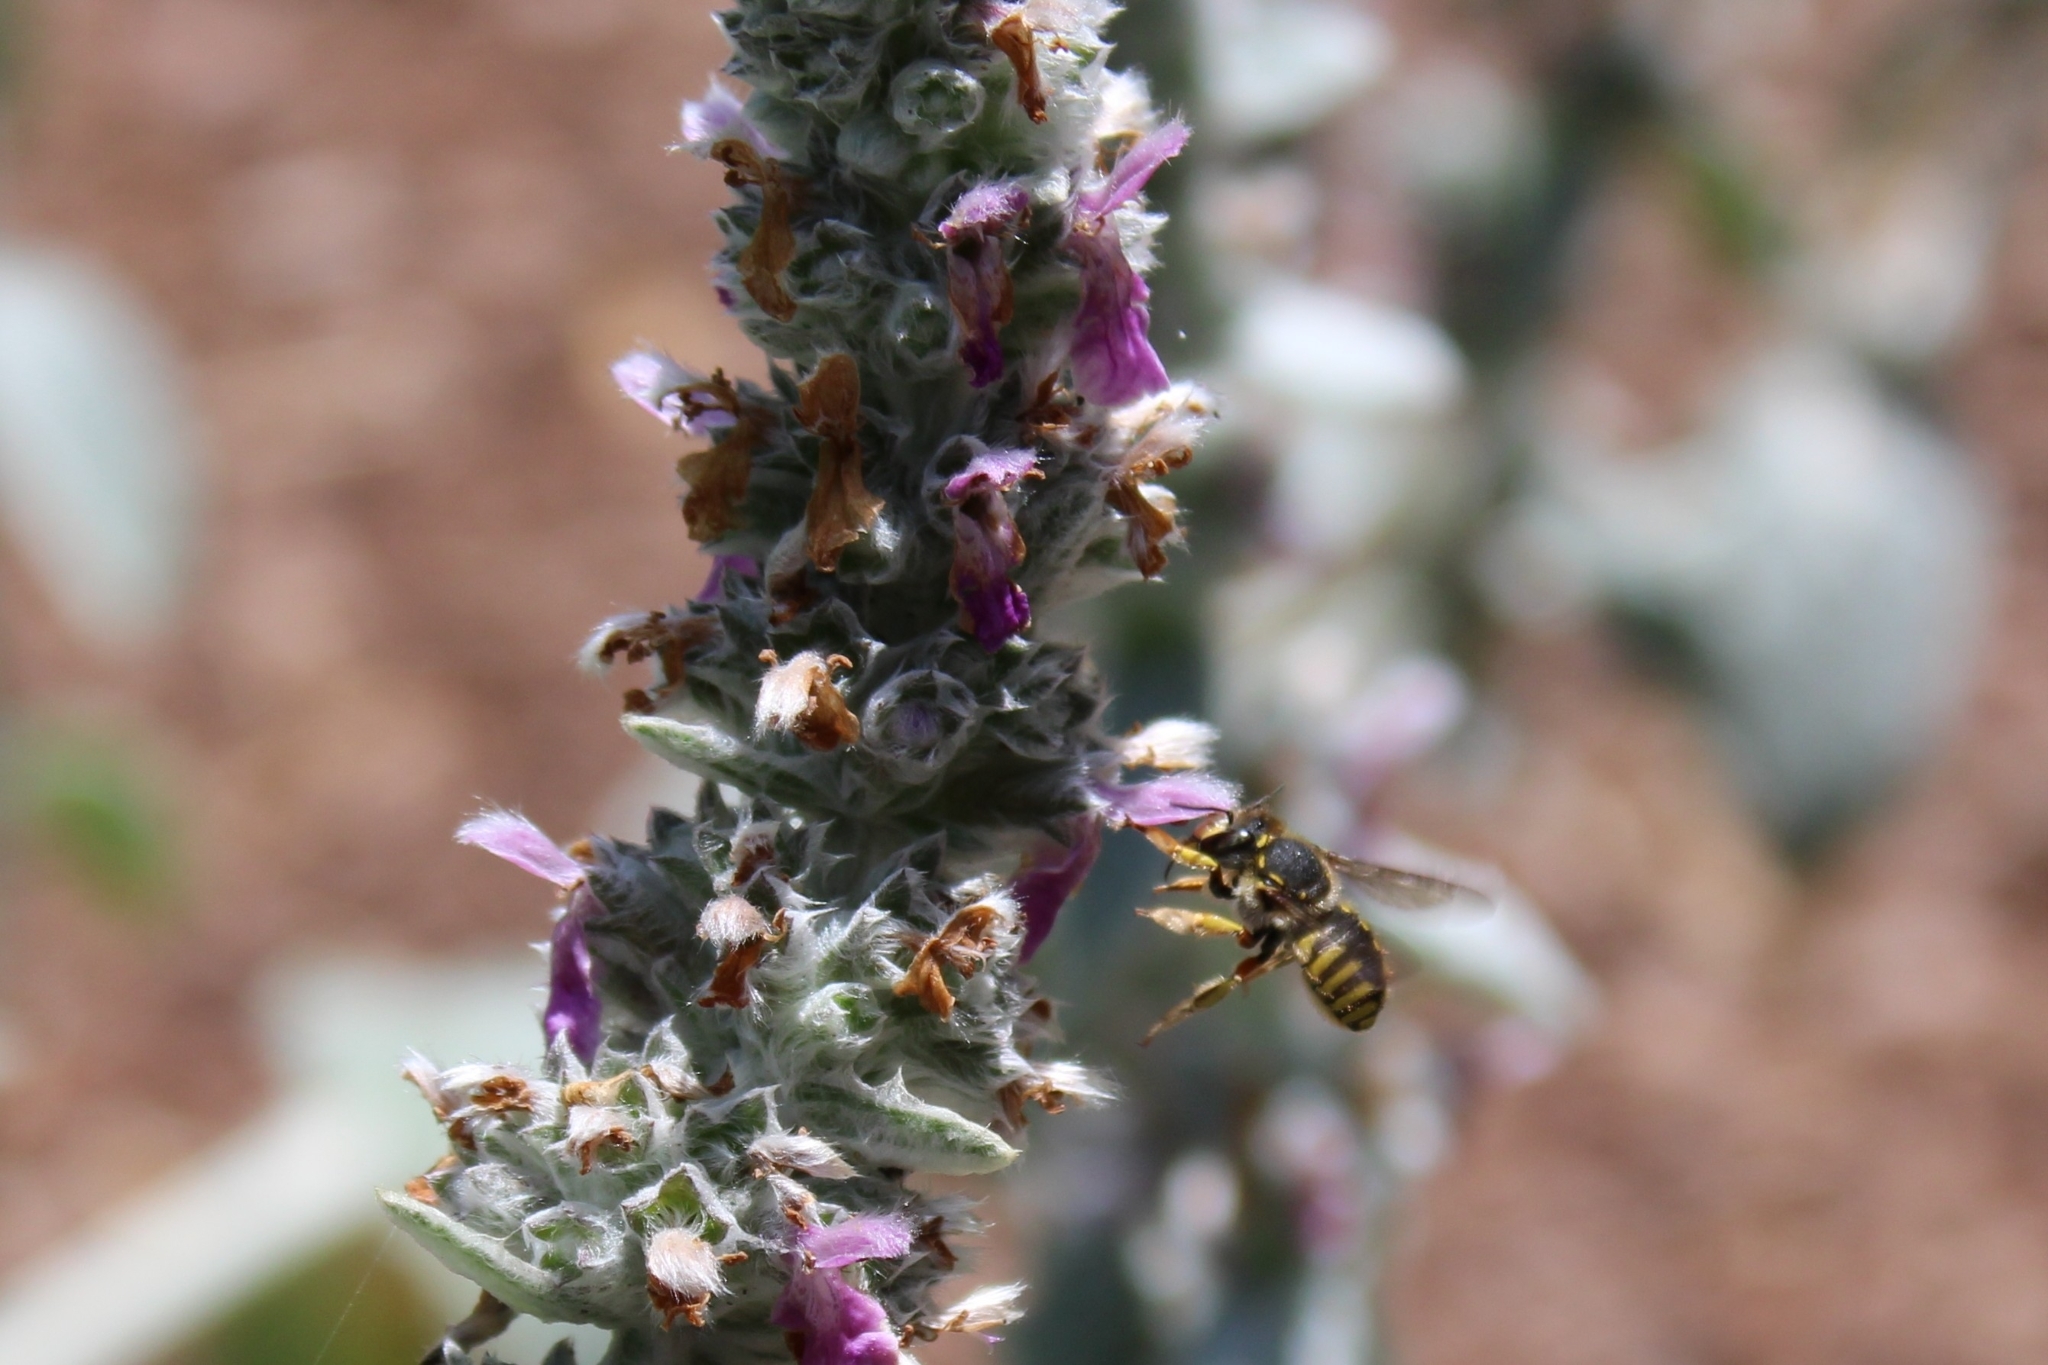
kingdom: Animalia
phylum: Arthropoda
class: Insecta
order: Hymenoptera
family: Megachilidae
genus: Anthidium
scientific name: Anthidium manicatum
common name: Wool carder bee
